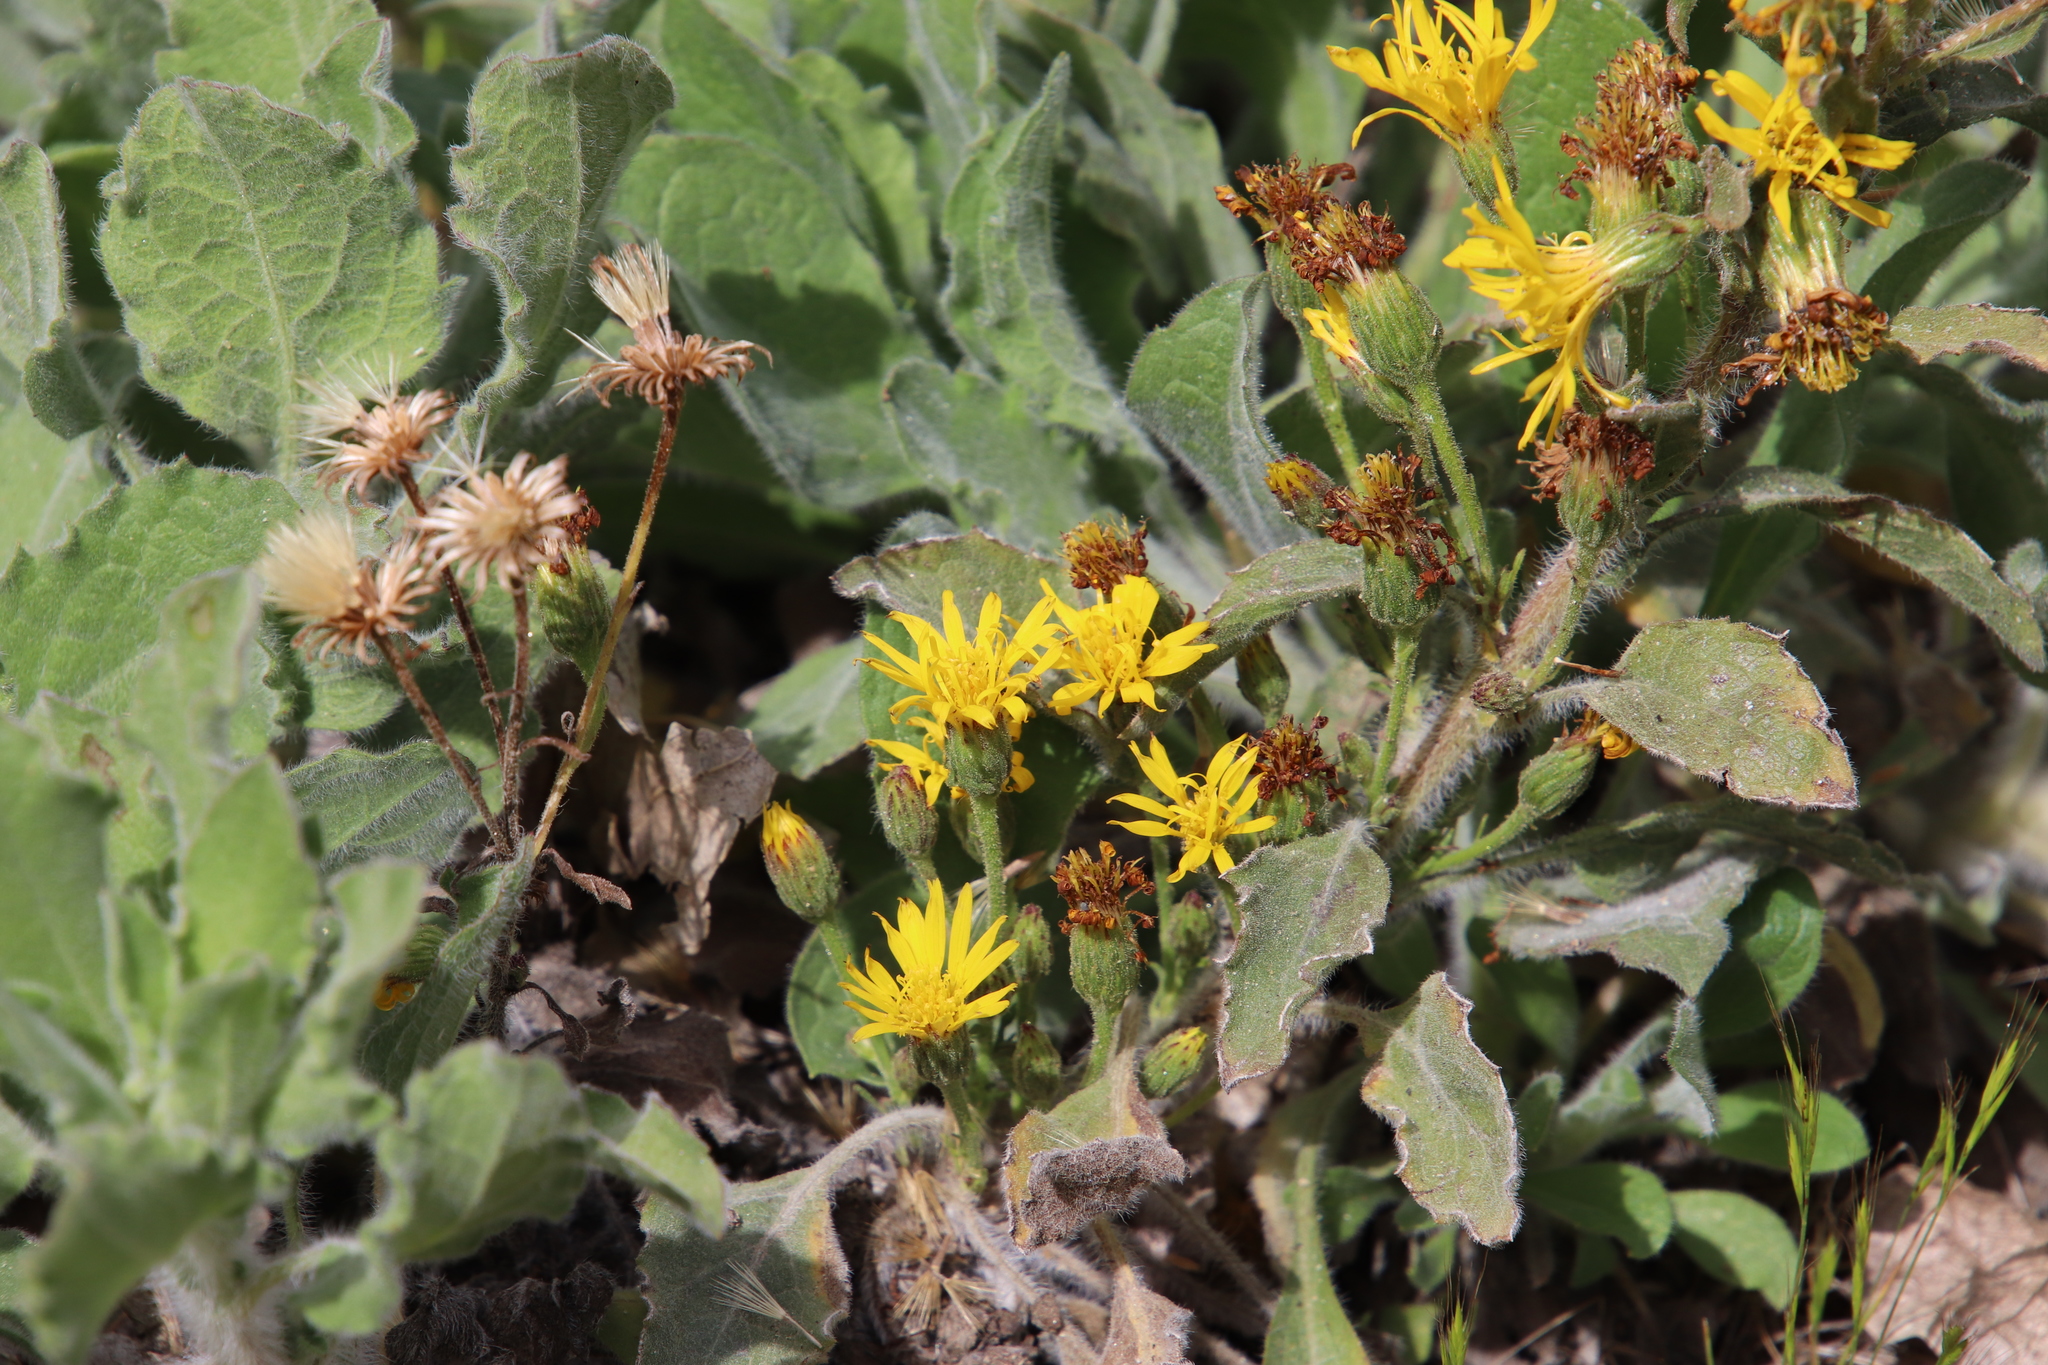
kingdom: Plantae
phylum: Tracheophyta
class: Magnoliopsida
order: Asterales
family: Asteraceae
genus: Heterotheca
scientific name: Heterotheca grandiflora
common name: Telegraphweed
